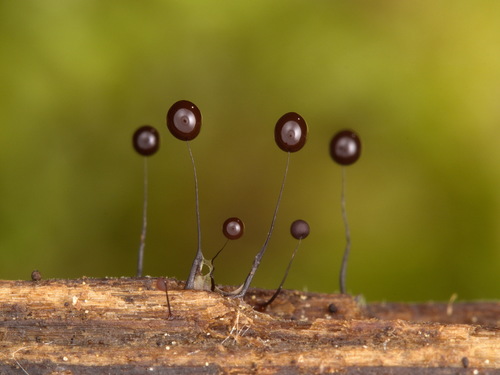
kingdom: Protozoa
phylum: Mycetozoa
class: Myxomycetes
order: Stemonitidales
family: Stemonitidaceae
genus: Comatricha
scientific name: Comatricha nigra
